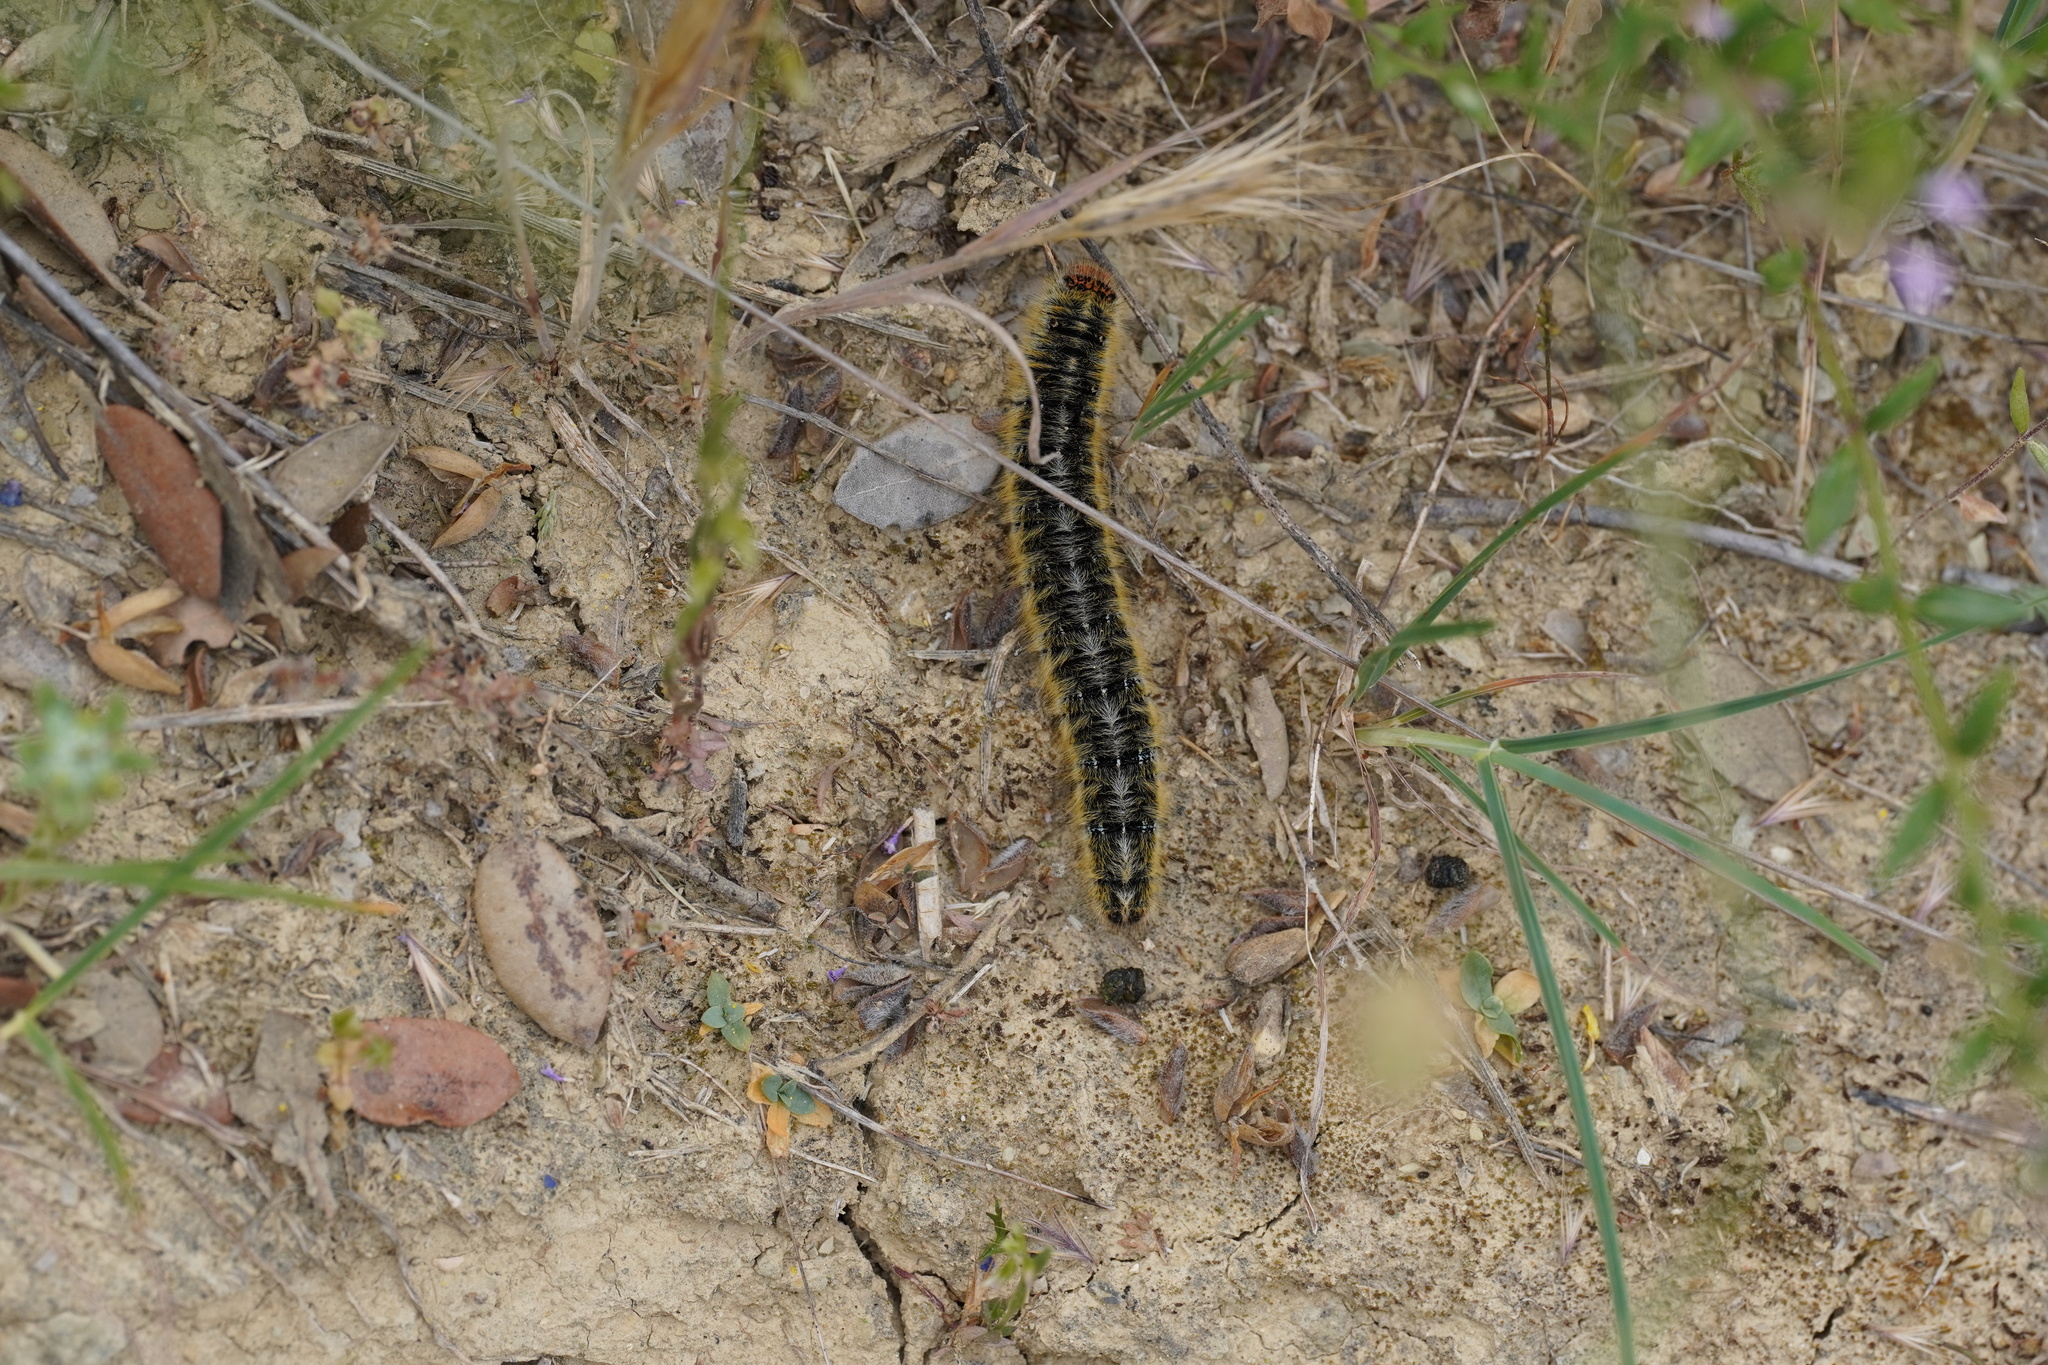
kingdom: Animalia
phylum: Arthropoda
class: Insecta
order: Lepidoptera
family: Lasiocampidae
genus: Lasiocampa
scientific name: Lasiocampa trifolii
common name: Grass eggar
